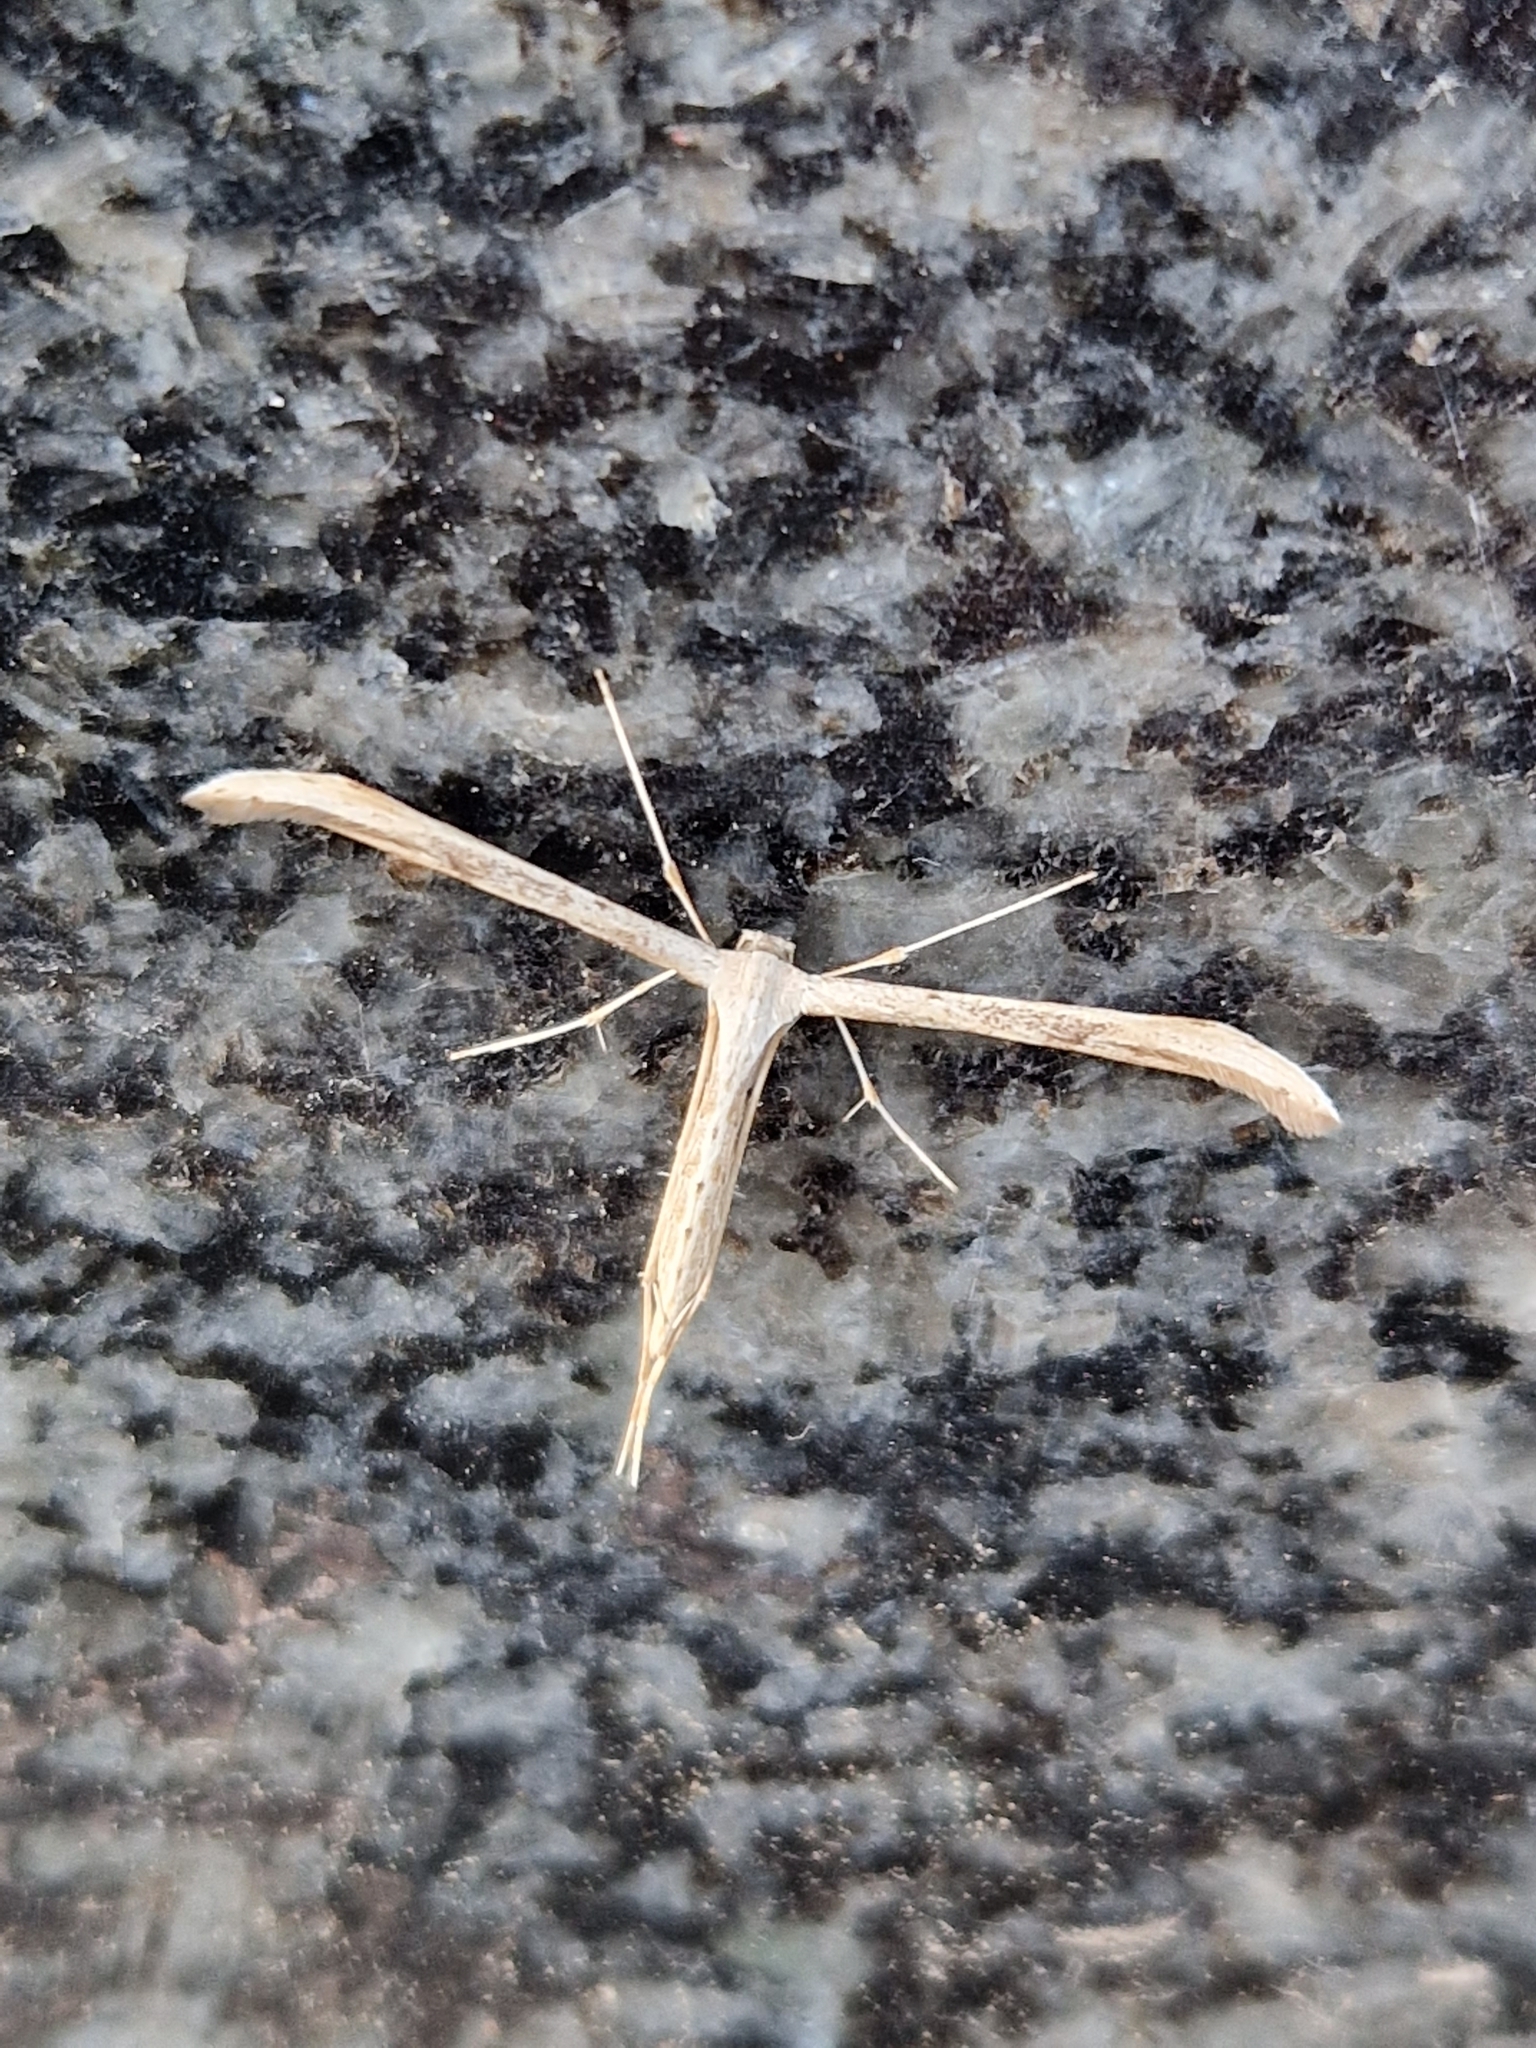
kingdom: Animalia
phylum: Arthropoda
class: Insecta
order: Lepidoptera
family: Pterophoridae
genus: Emmelina
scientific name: Emmelina monodactyla
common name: Common plume
